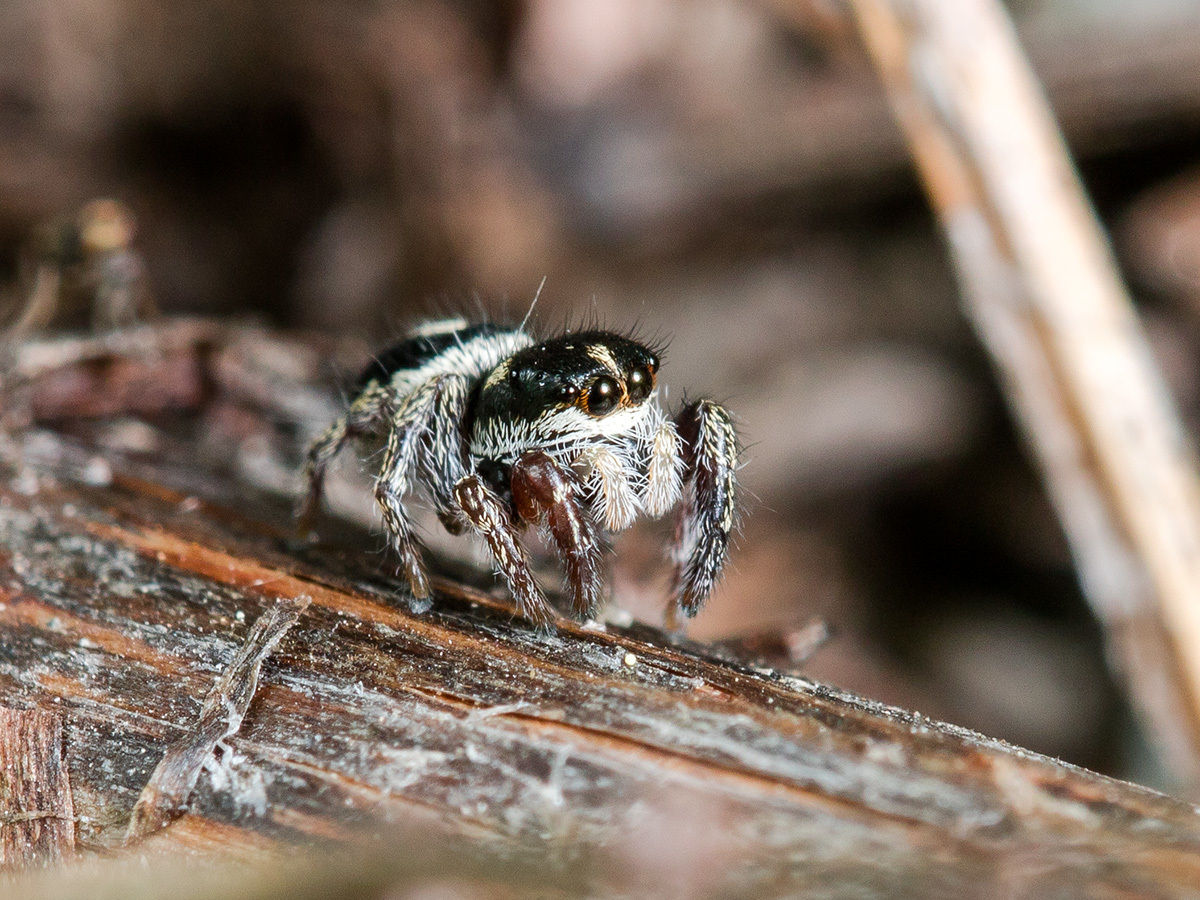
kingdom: Animalia
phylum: Arthropoda
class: Arachnida
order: Araneae
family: Salticidae
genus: Pellenes
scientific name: Pellenes nigrociliatus
